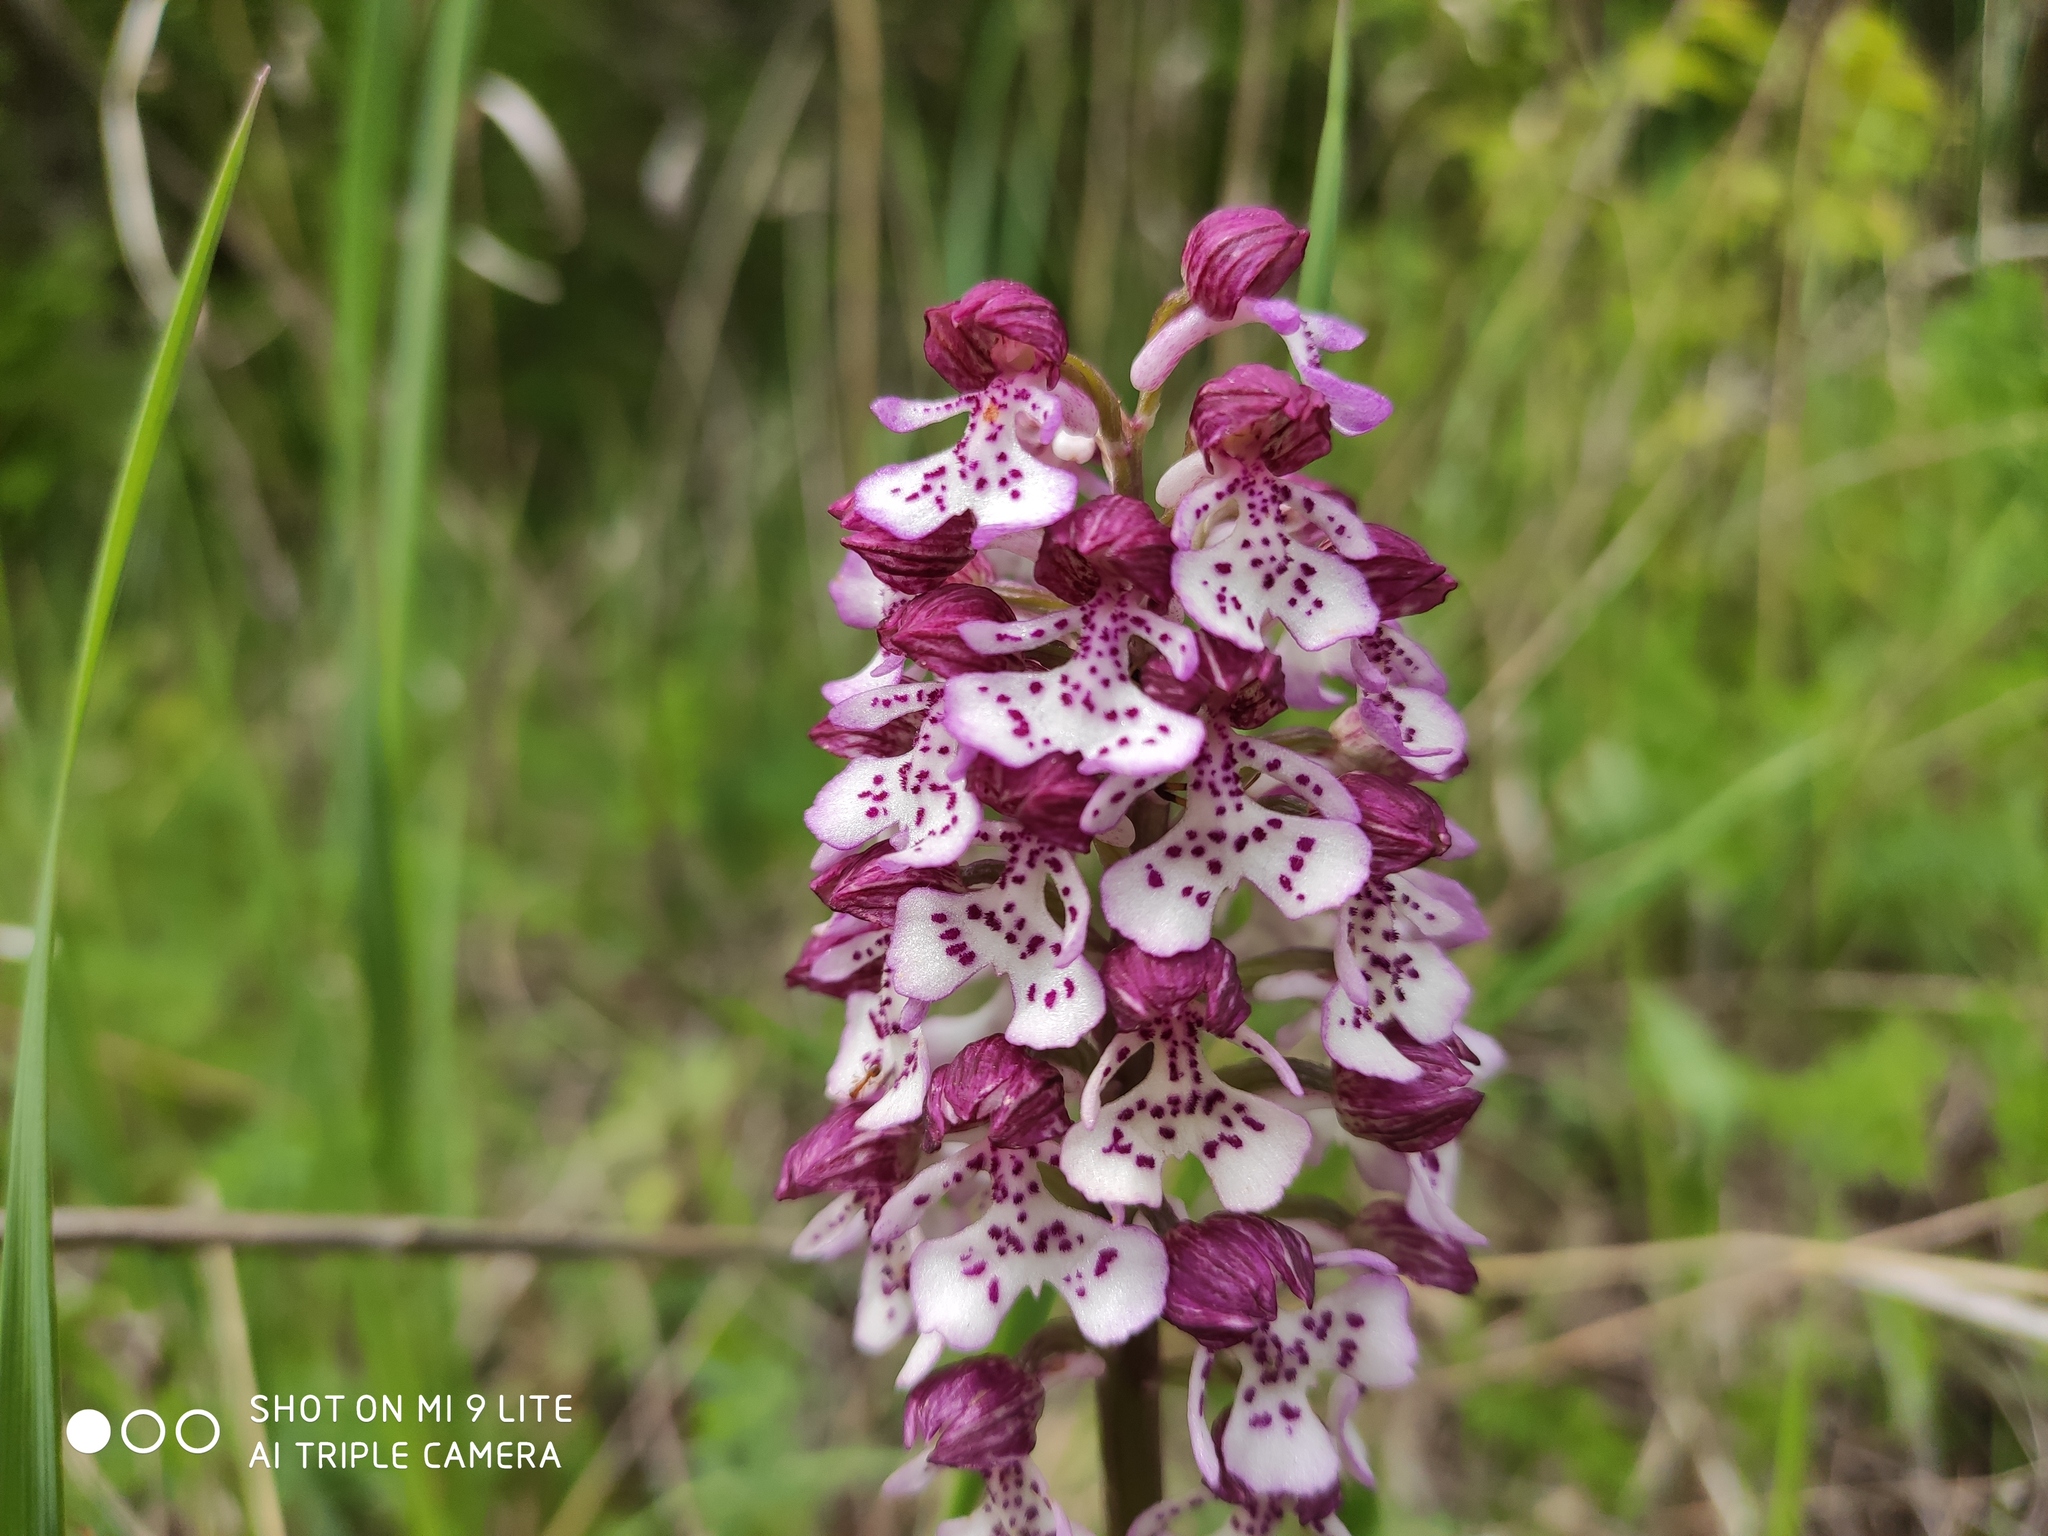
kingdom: Plantae
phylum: Tracheophyta
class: Liliopsida
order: Asparagales
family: Orchidaceae
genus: Orchis
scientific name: Orchis purpurea
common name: Lady orchid
